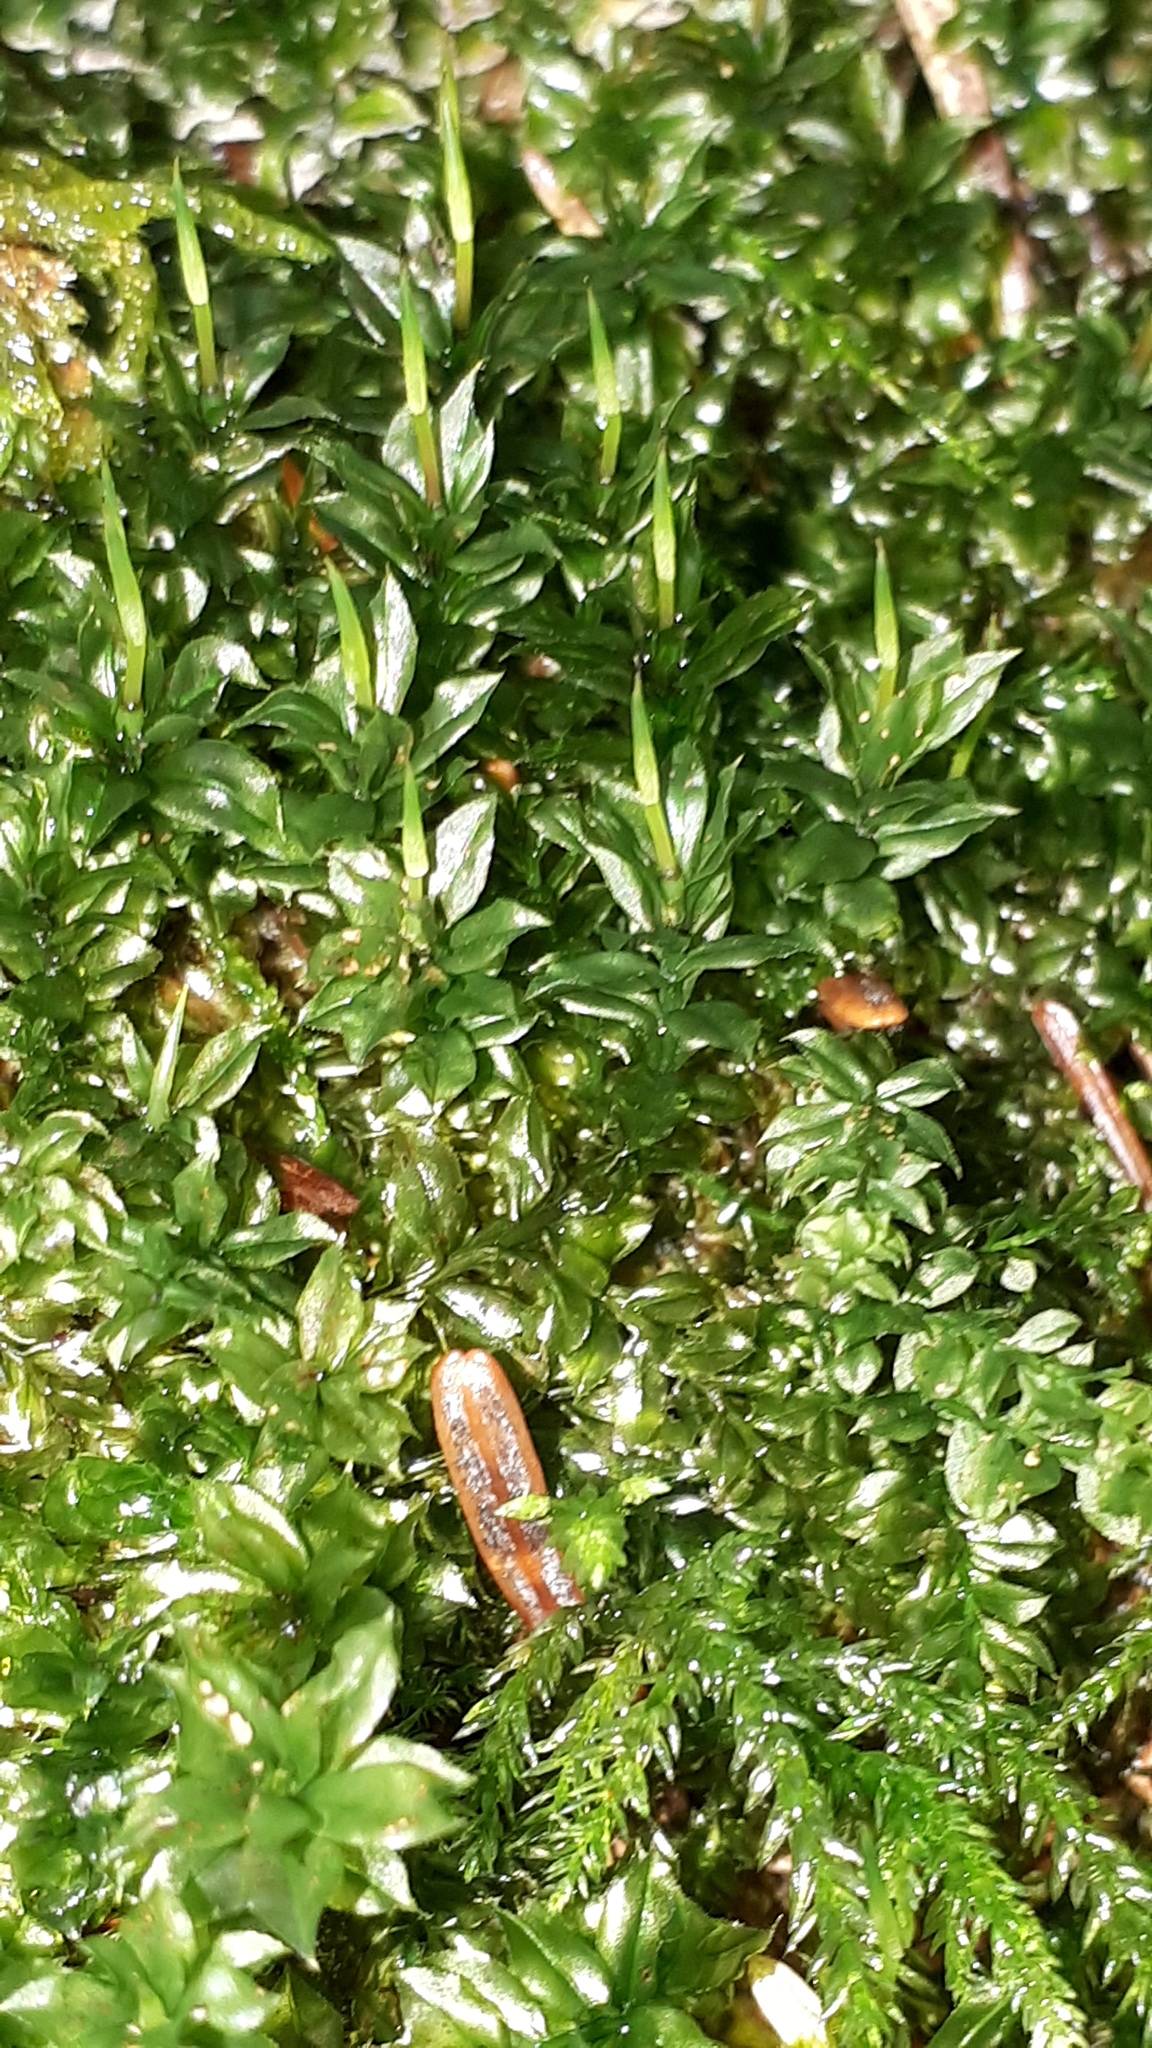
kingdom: Plantae
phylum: Bryophyta
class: Bryopsida
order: Bryales
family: Mniaceae
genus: Plagiomnium
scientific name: Plagiomnium cuspidatum
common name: Woodsy leafy moss
